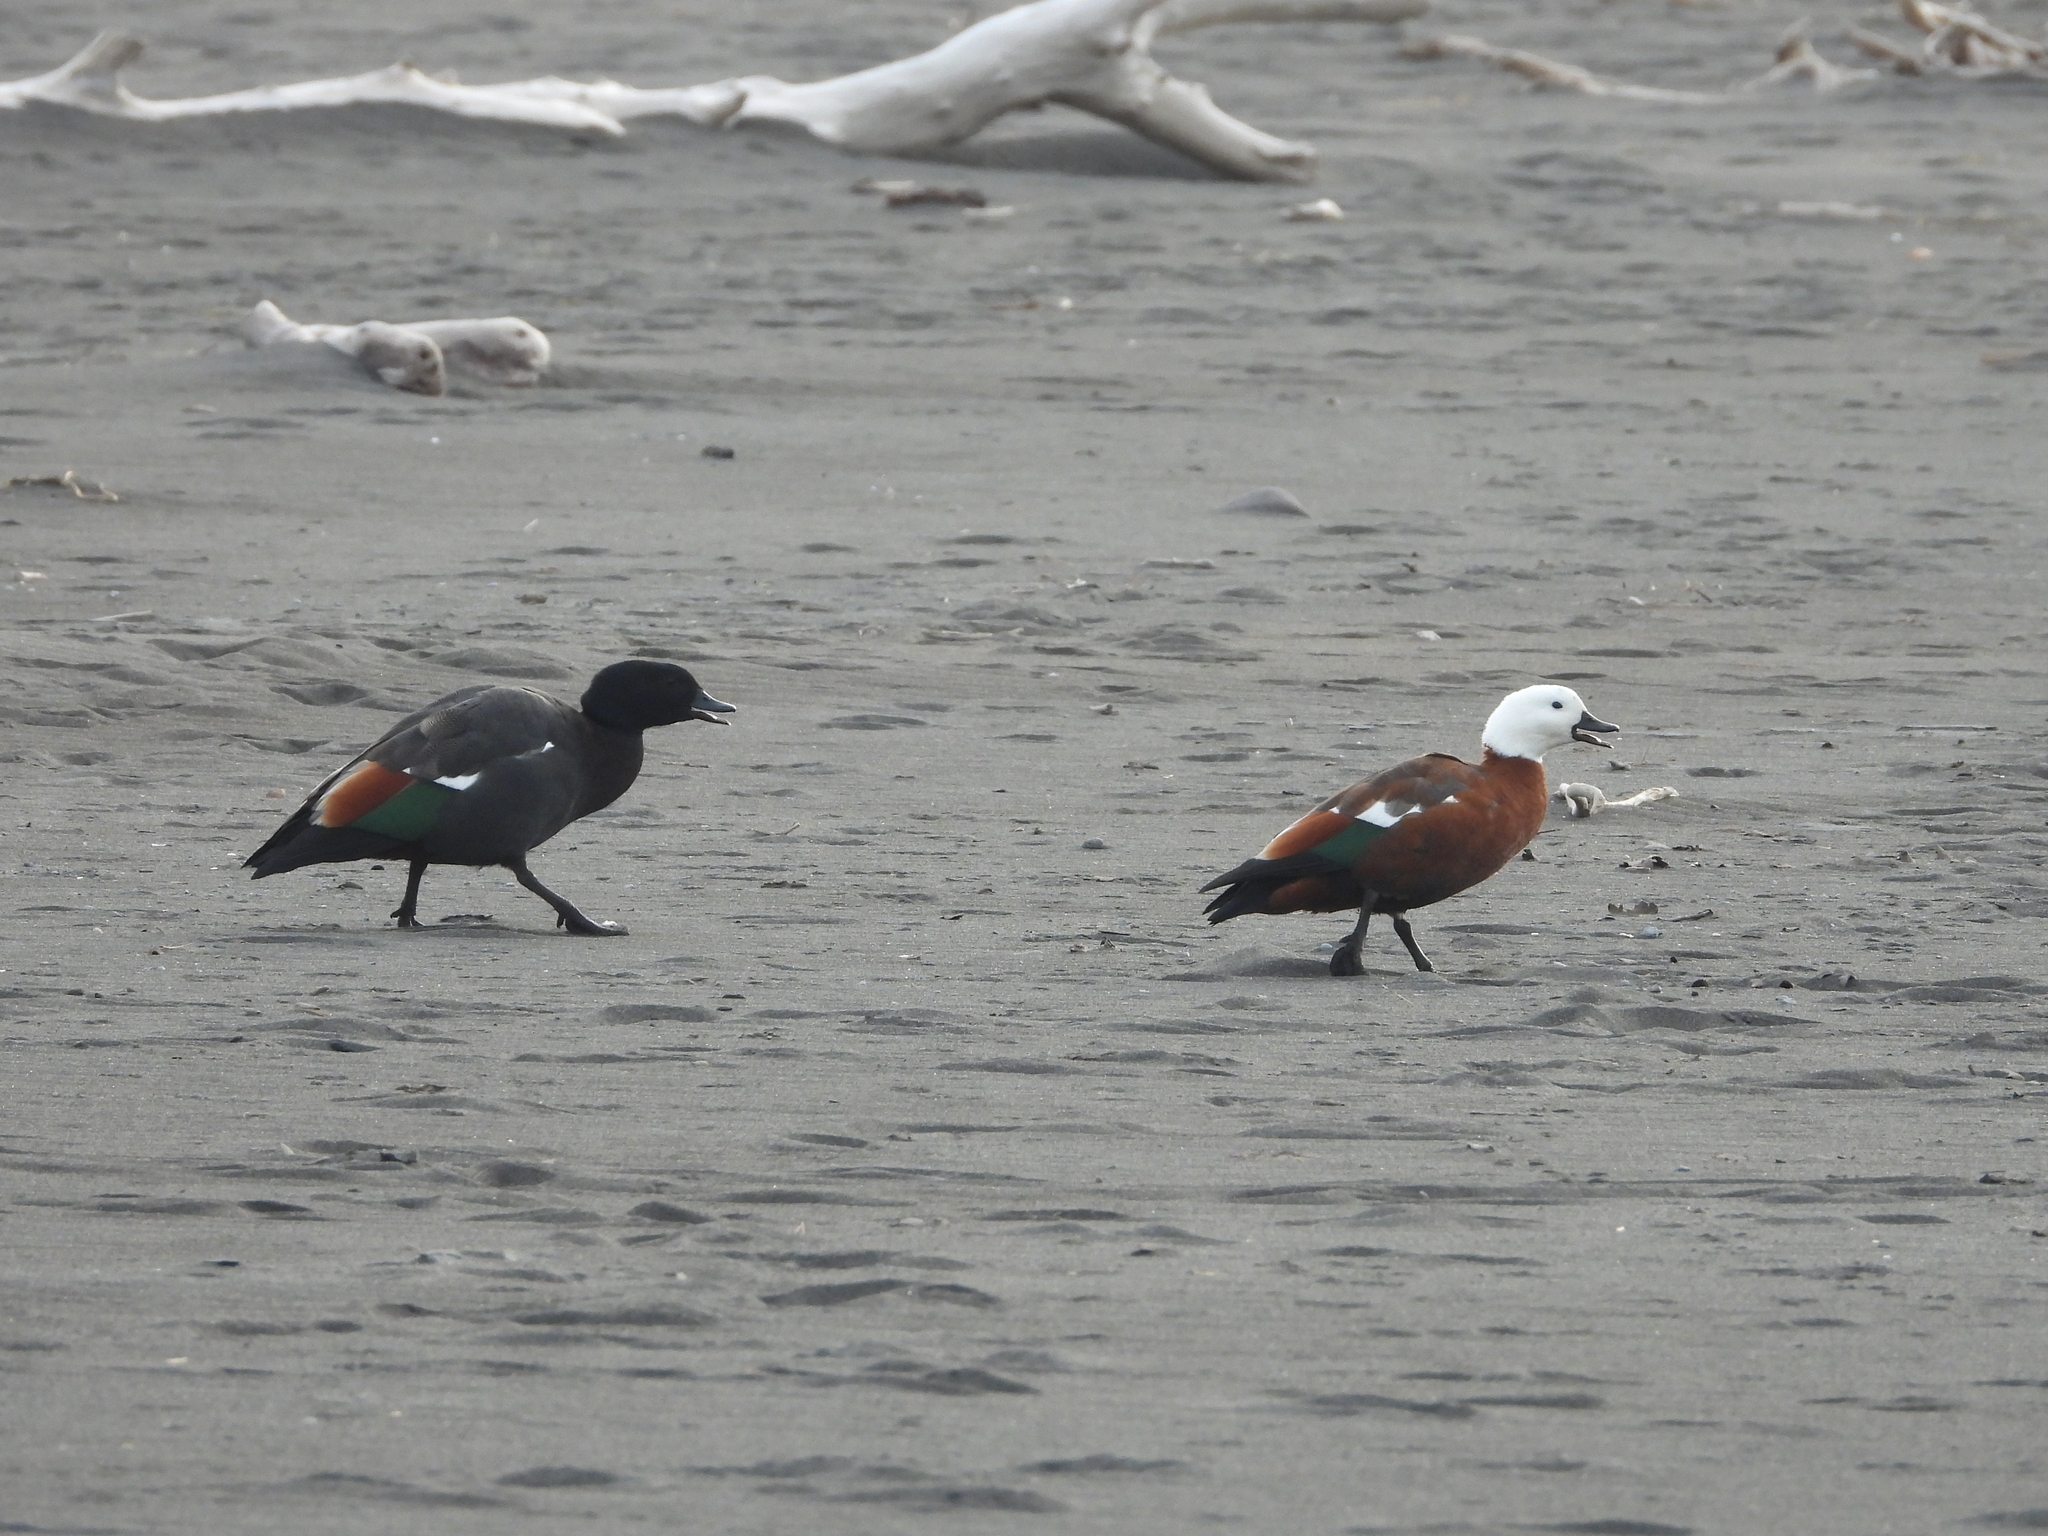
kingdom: Animalia
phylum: Chordata
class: Aves
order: Anseriformes
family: Anatidae
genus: Tadorna
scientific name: Tadorna variegata
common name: Paradise shelduck
